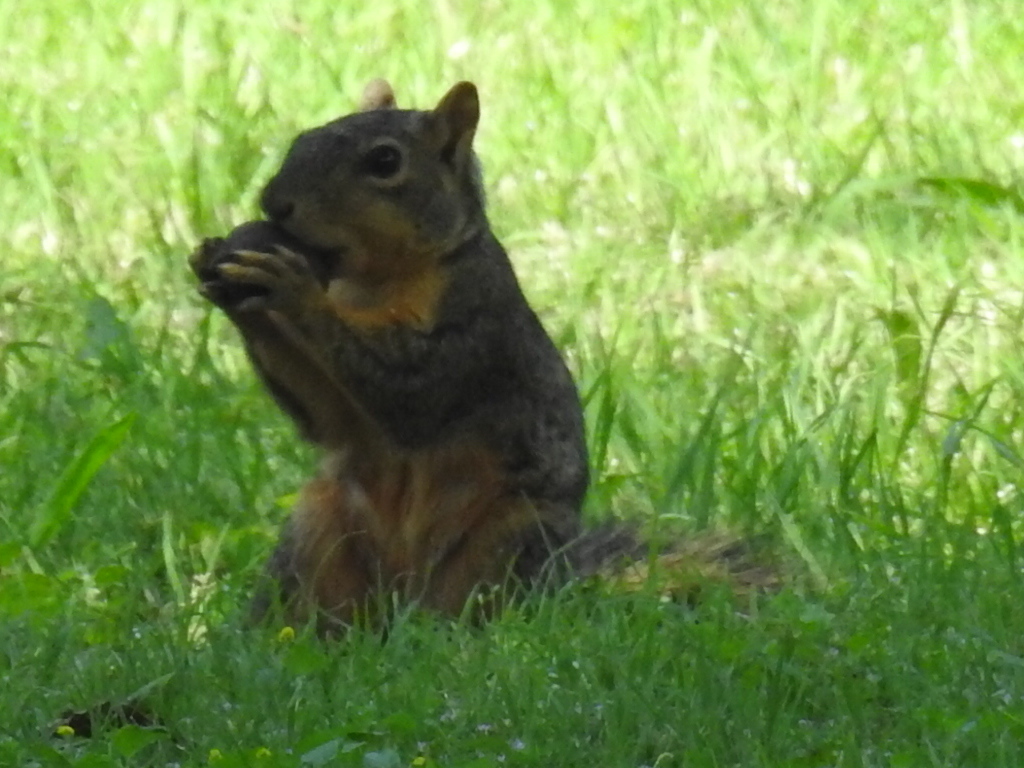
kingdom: Animalia
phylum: Chordata
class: Mammalia
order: Rodentia
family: Sciuridae
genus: Sciurus
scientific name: Sciurus niger
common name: Fox squirrel
